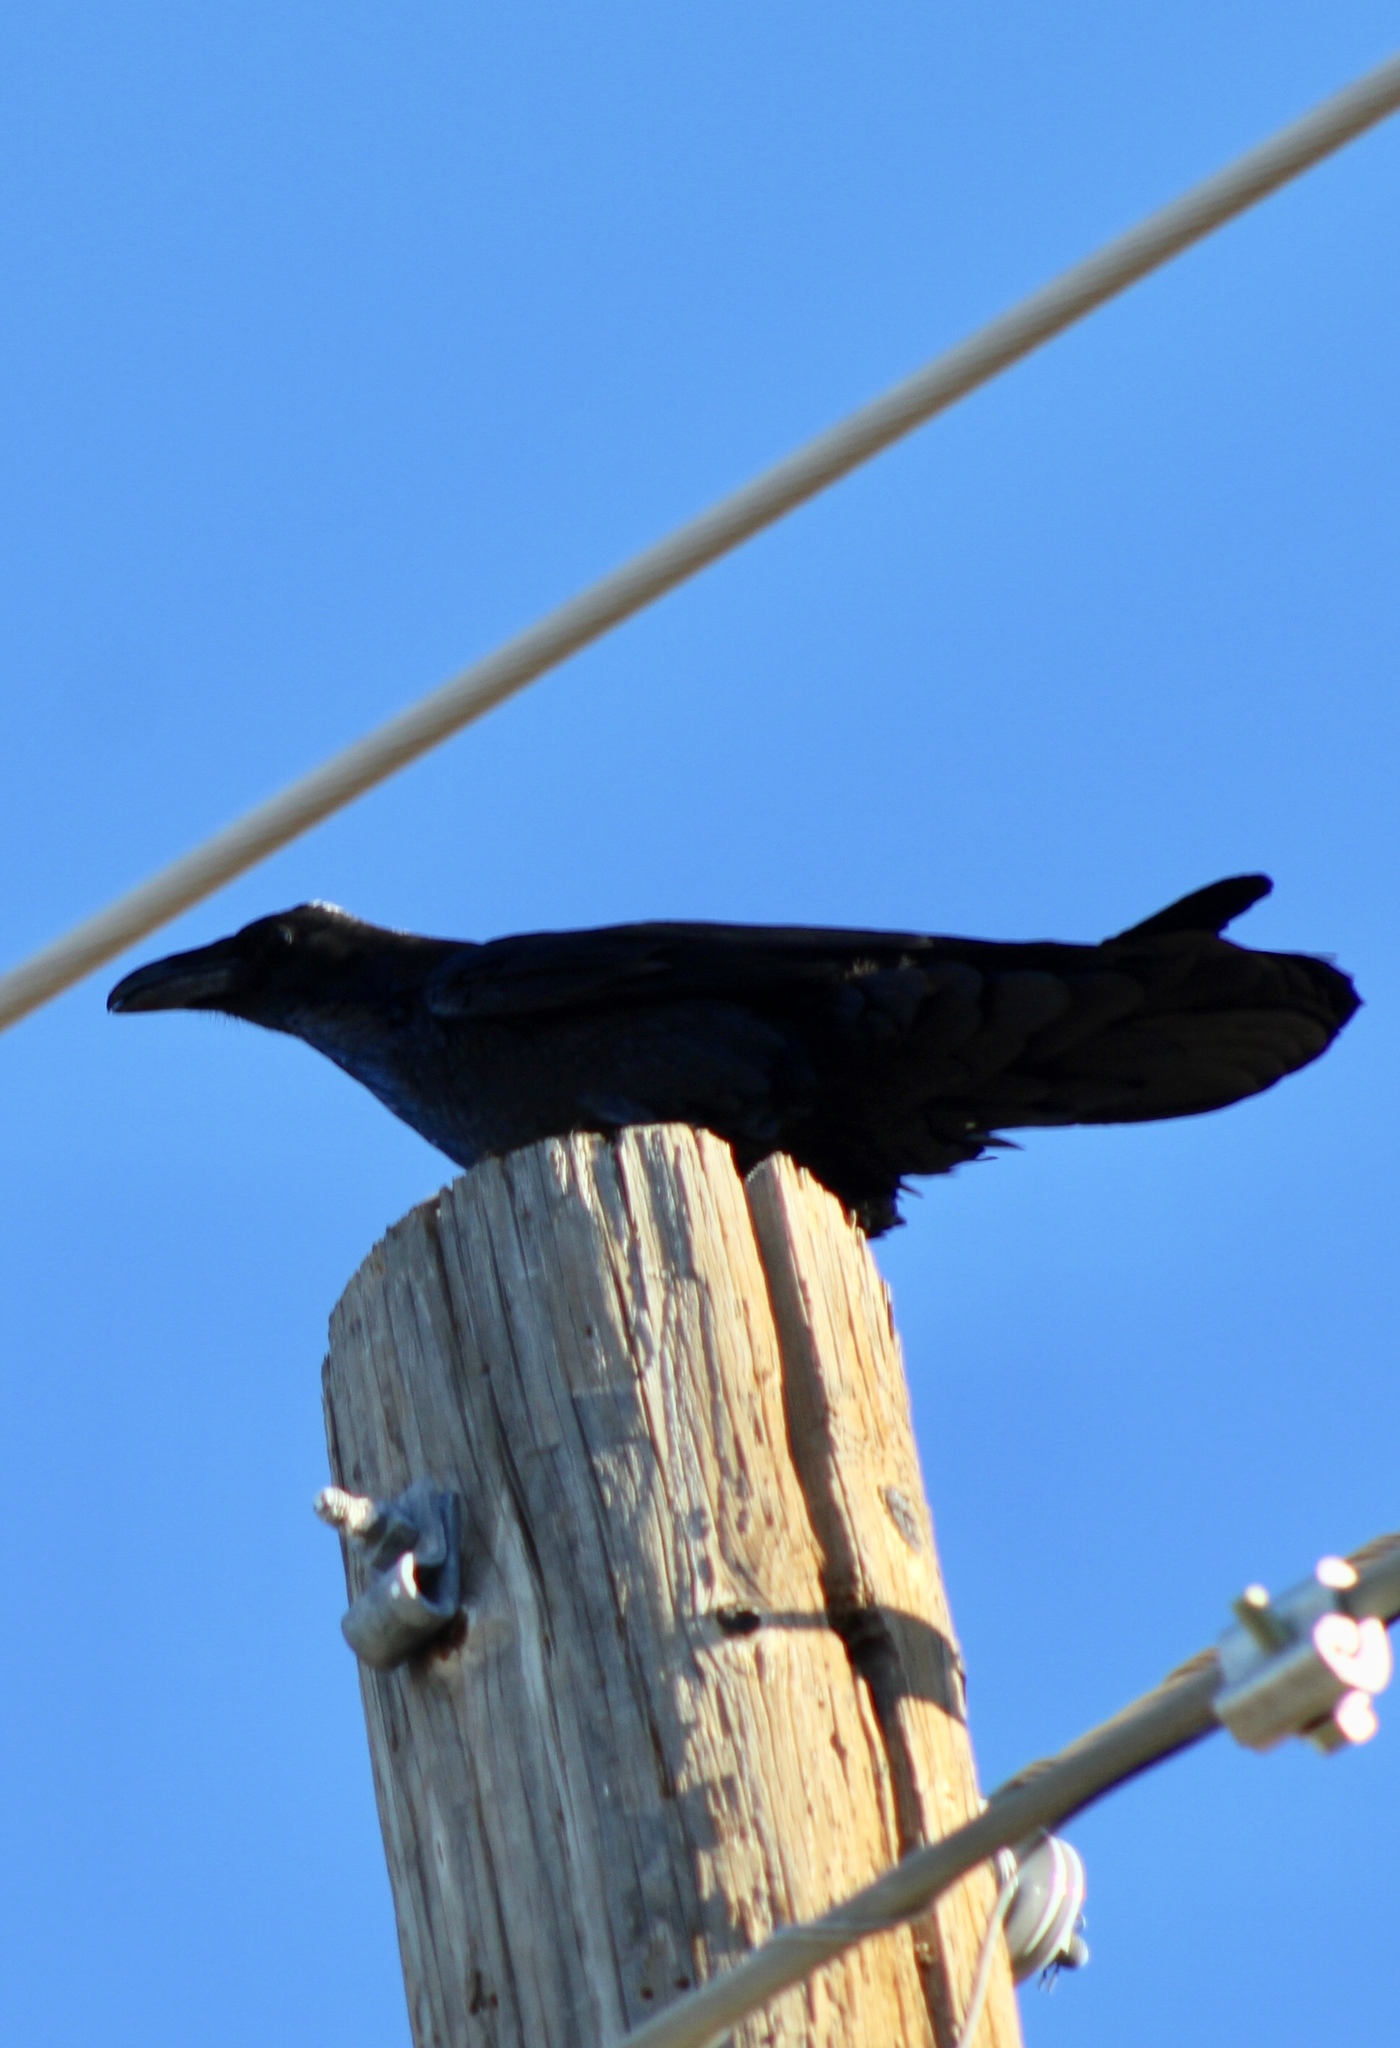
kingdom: Animalia
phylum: Chordata
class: Aves
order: Passeriformes
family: Corvidae
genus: Corvus
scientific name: Corvus corax
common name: Common raven
